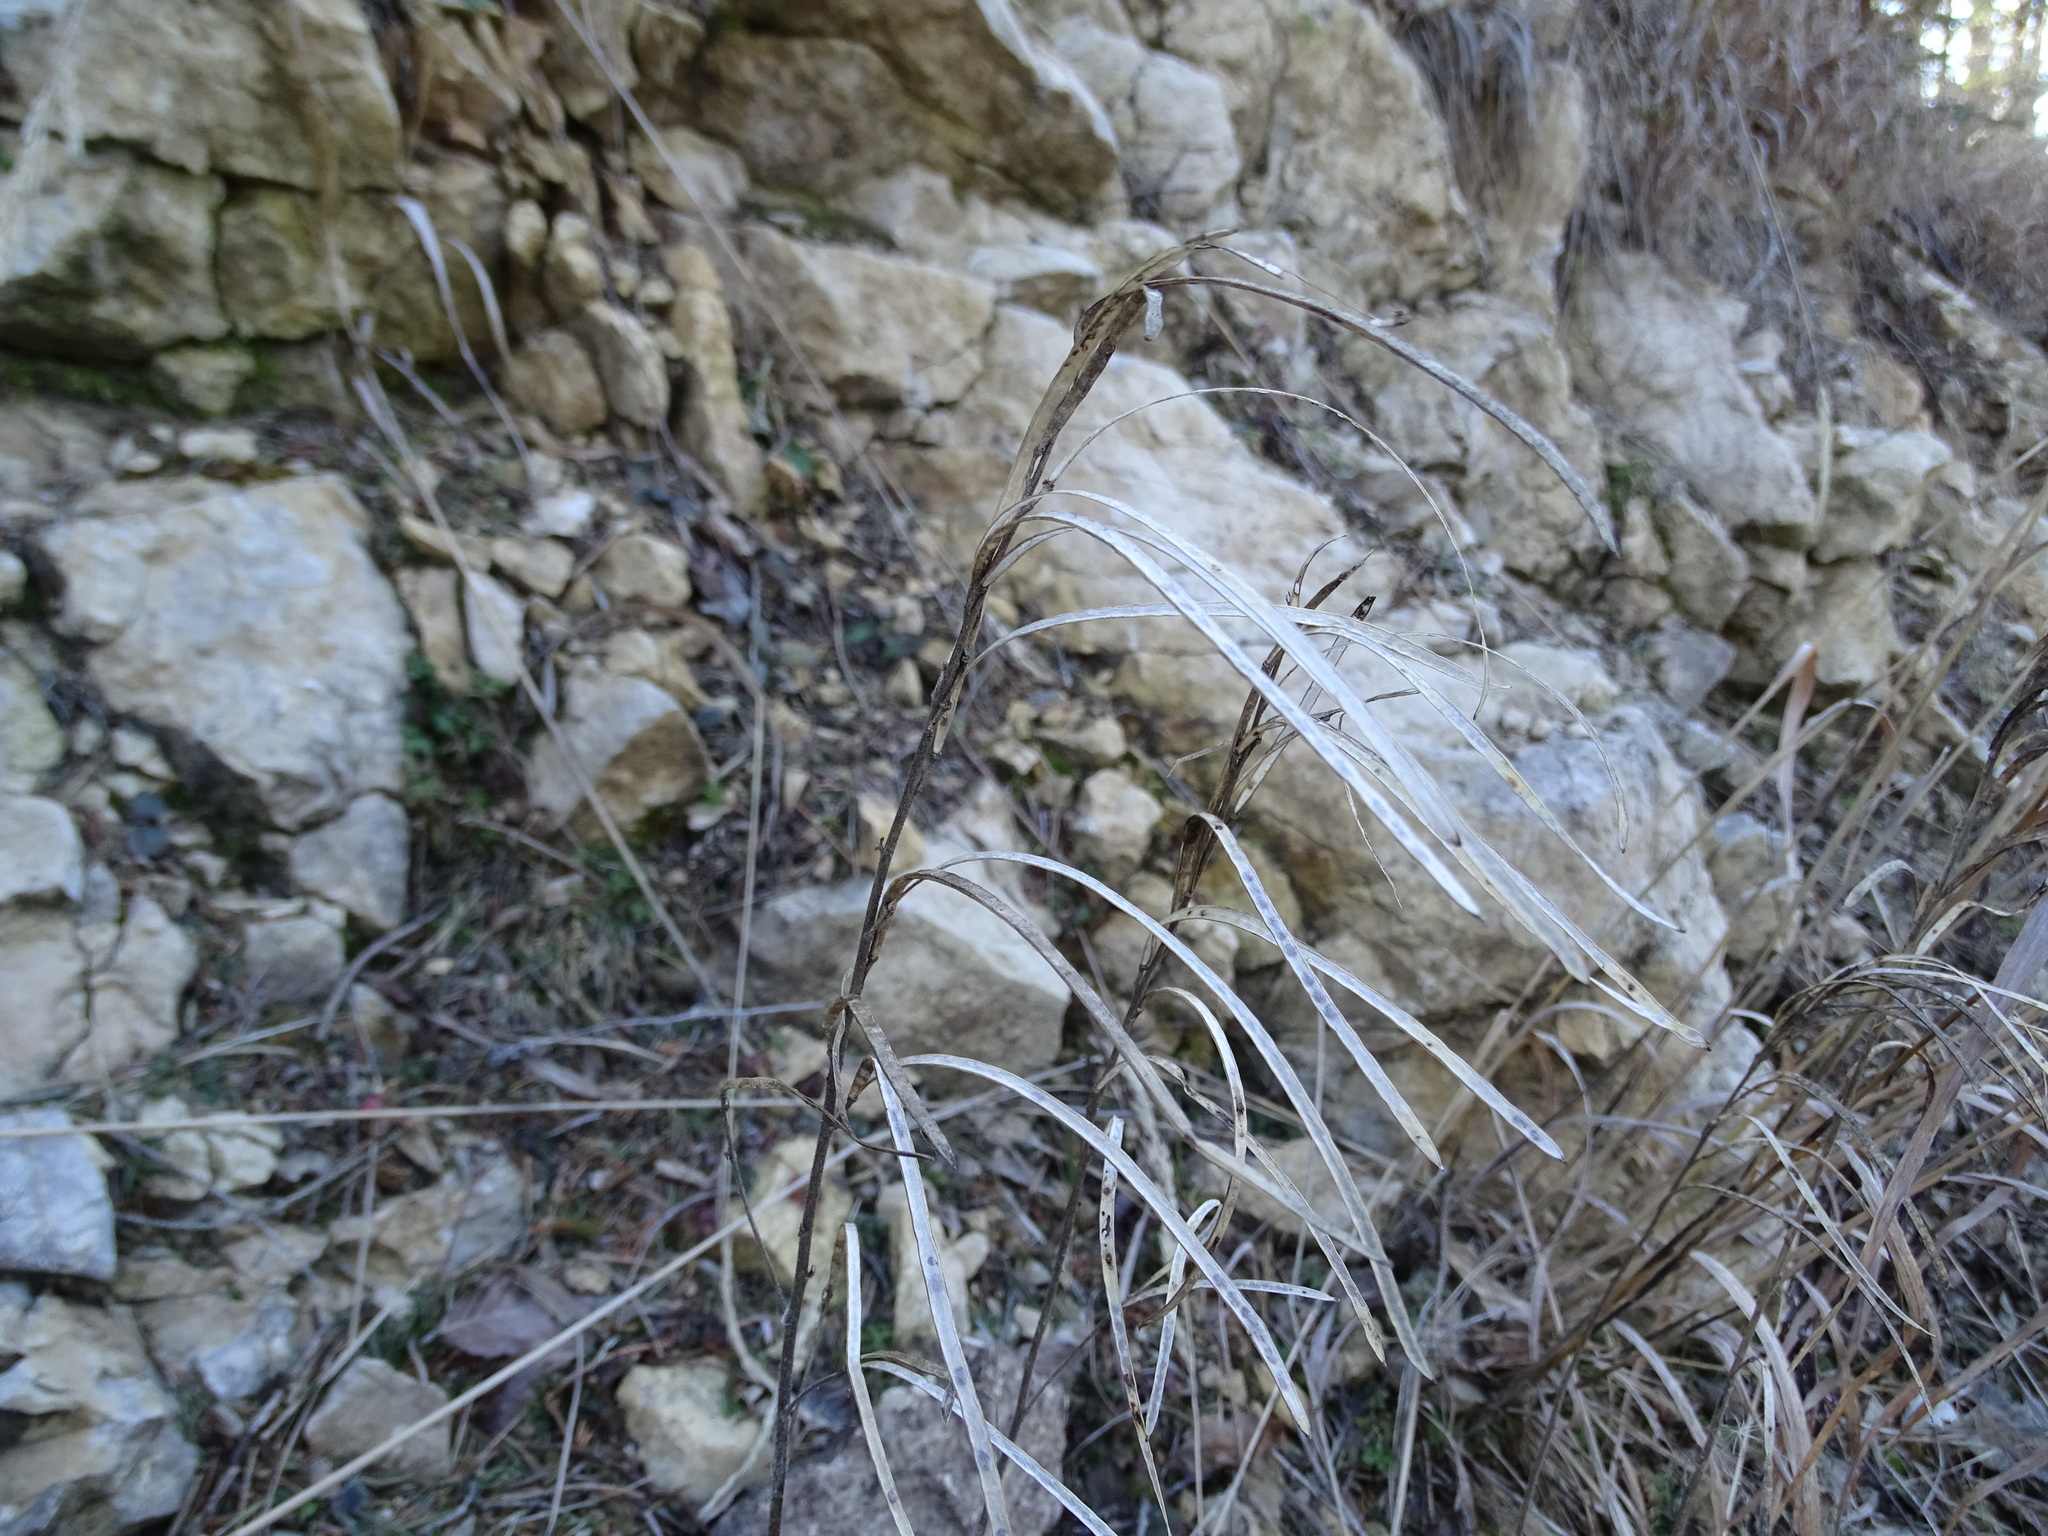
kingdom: Plantae
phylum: Tracheophyta
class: Magnoliopsida
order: Brassicales
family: Brassicaceae
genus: Pseudoturritis
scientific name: Pseudoturritis turrita
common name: Tower cress
